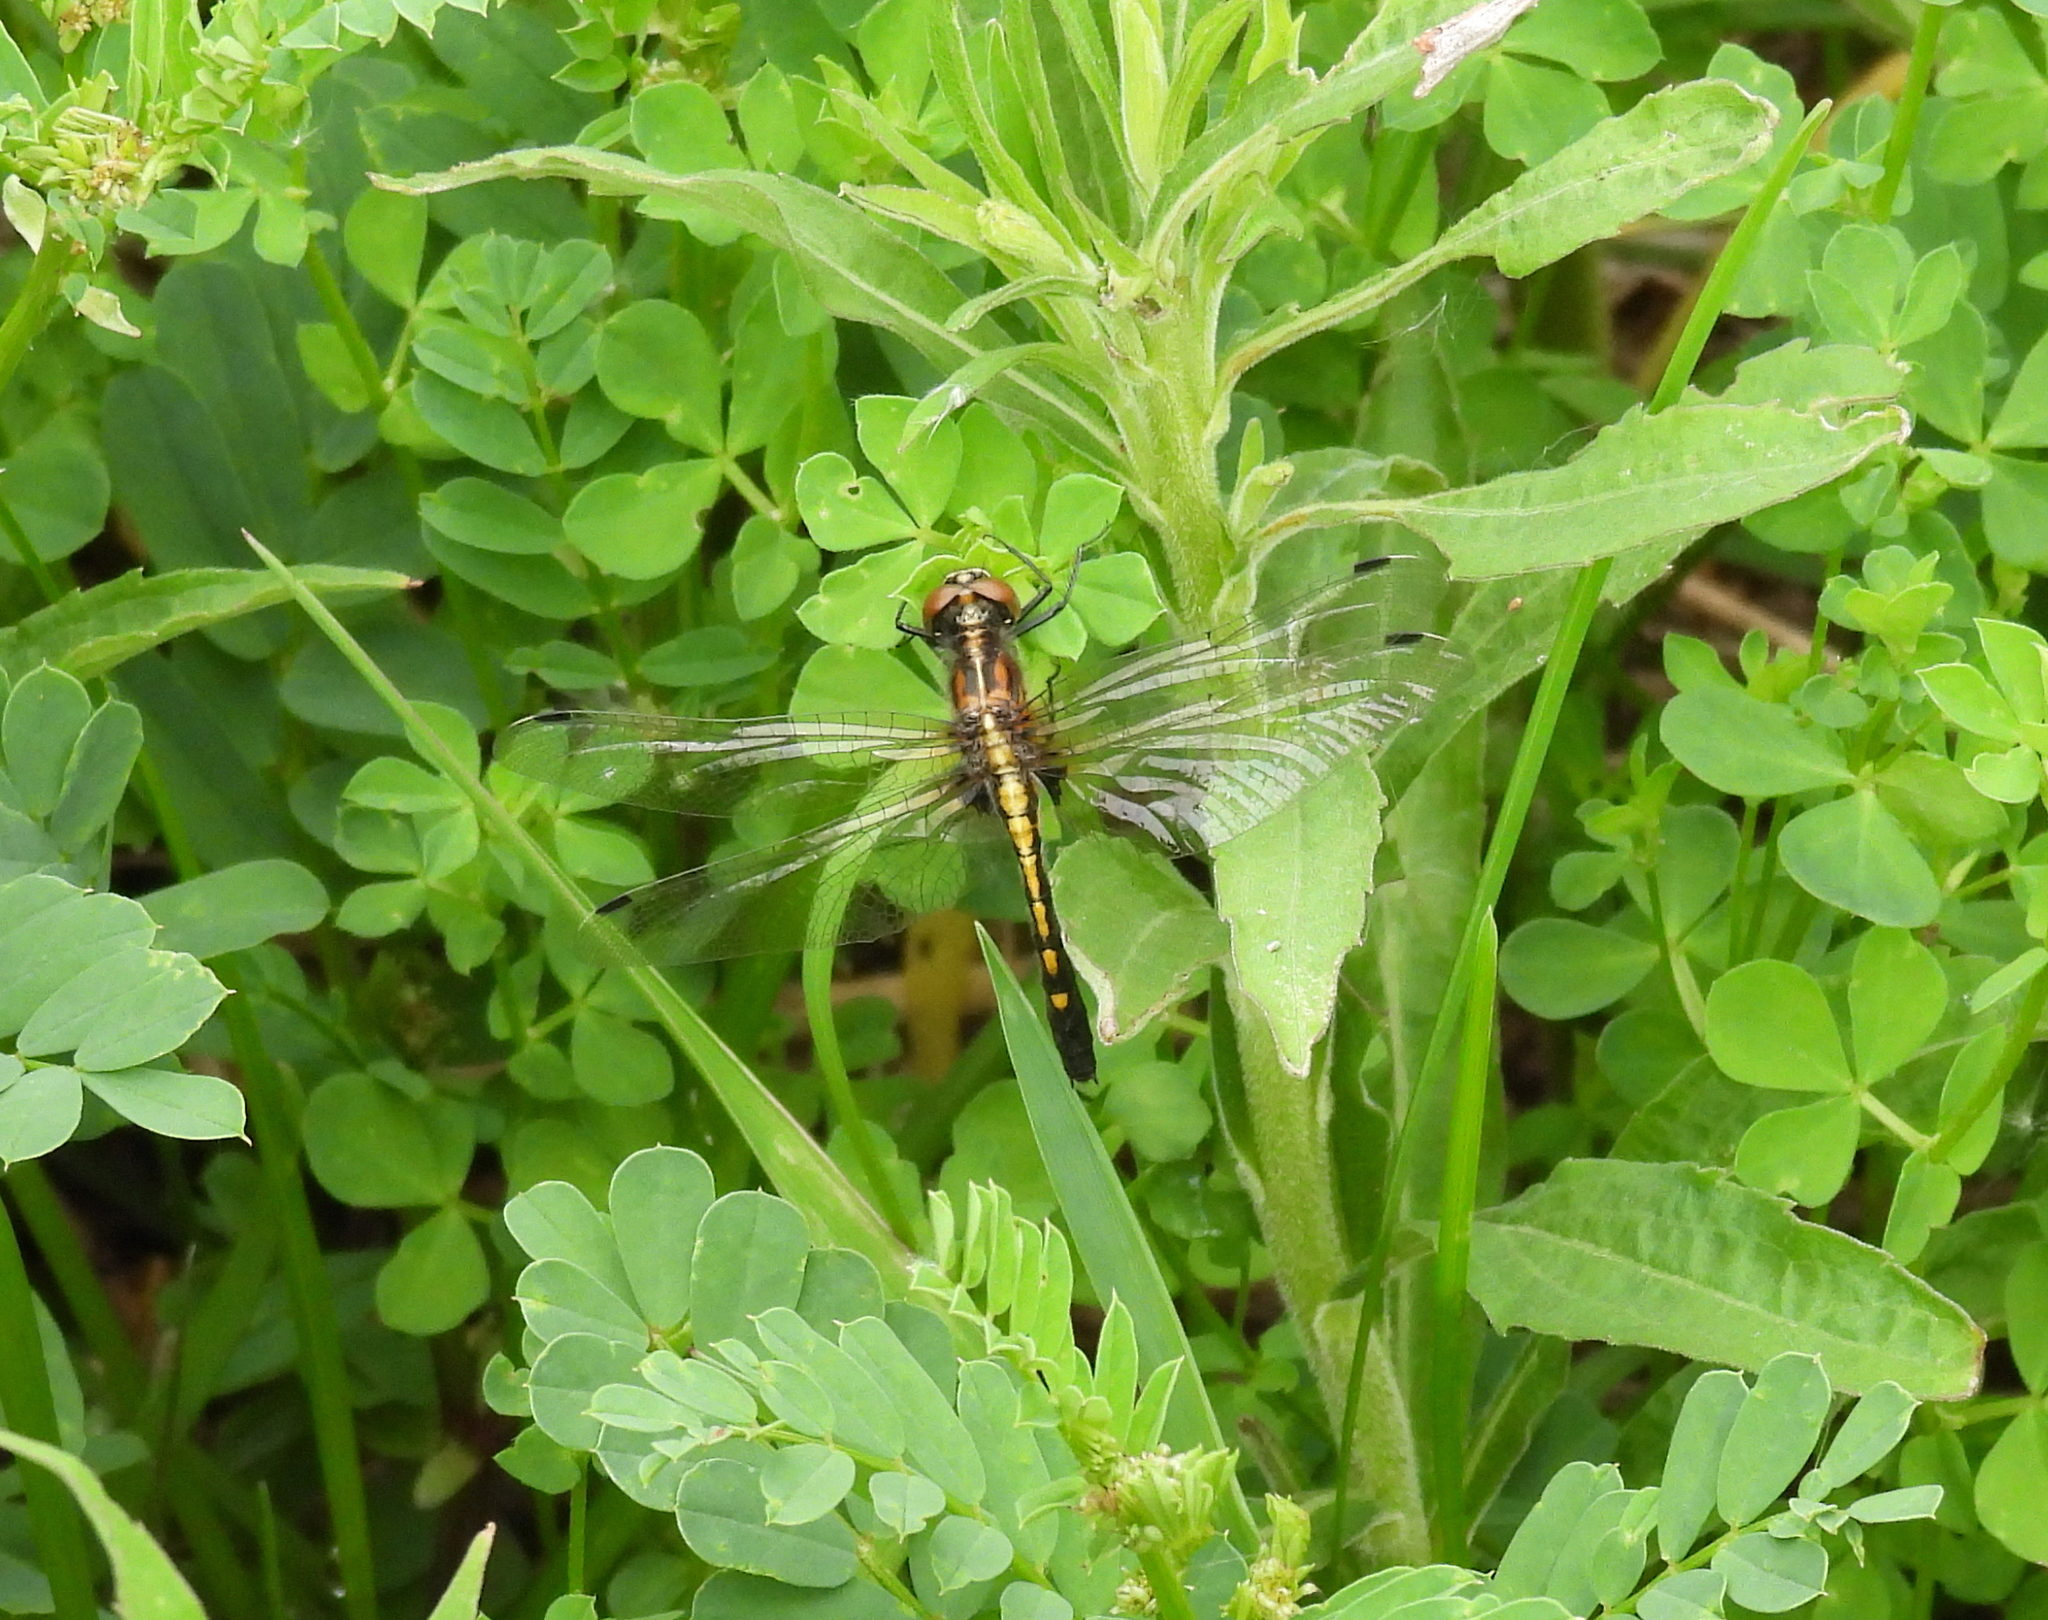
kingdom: Animalia
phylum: Arthropoda
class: Insecta
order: Odonata
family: Libellulidae
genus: Leucorrhinia
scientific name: Leucorrhinia intacta
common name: Dot-tailed whiteface
